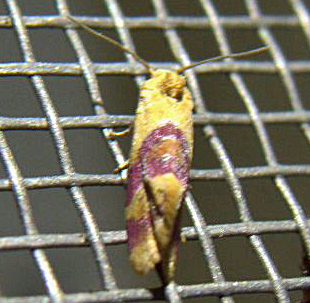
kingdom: Animalia
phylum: Arthropoda
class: Insecta
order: Lepidoptera
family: Tortricidae
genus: Diceratura
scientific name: Diceratura ostrinana
